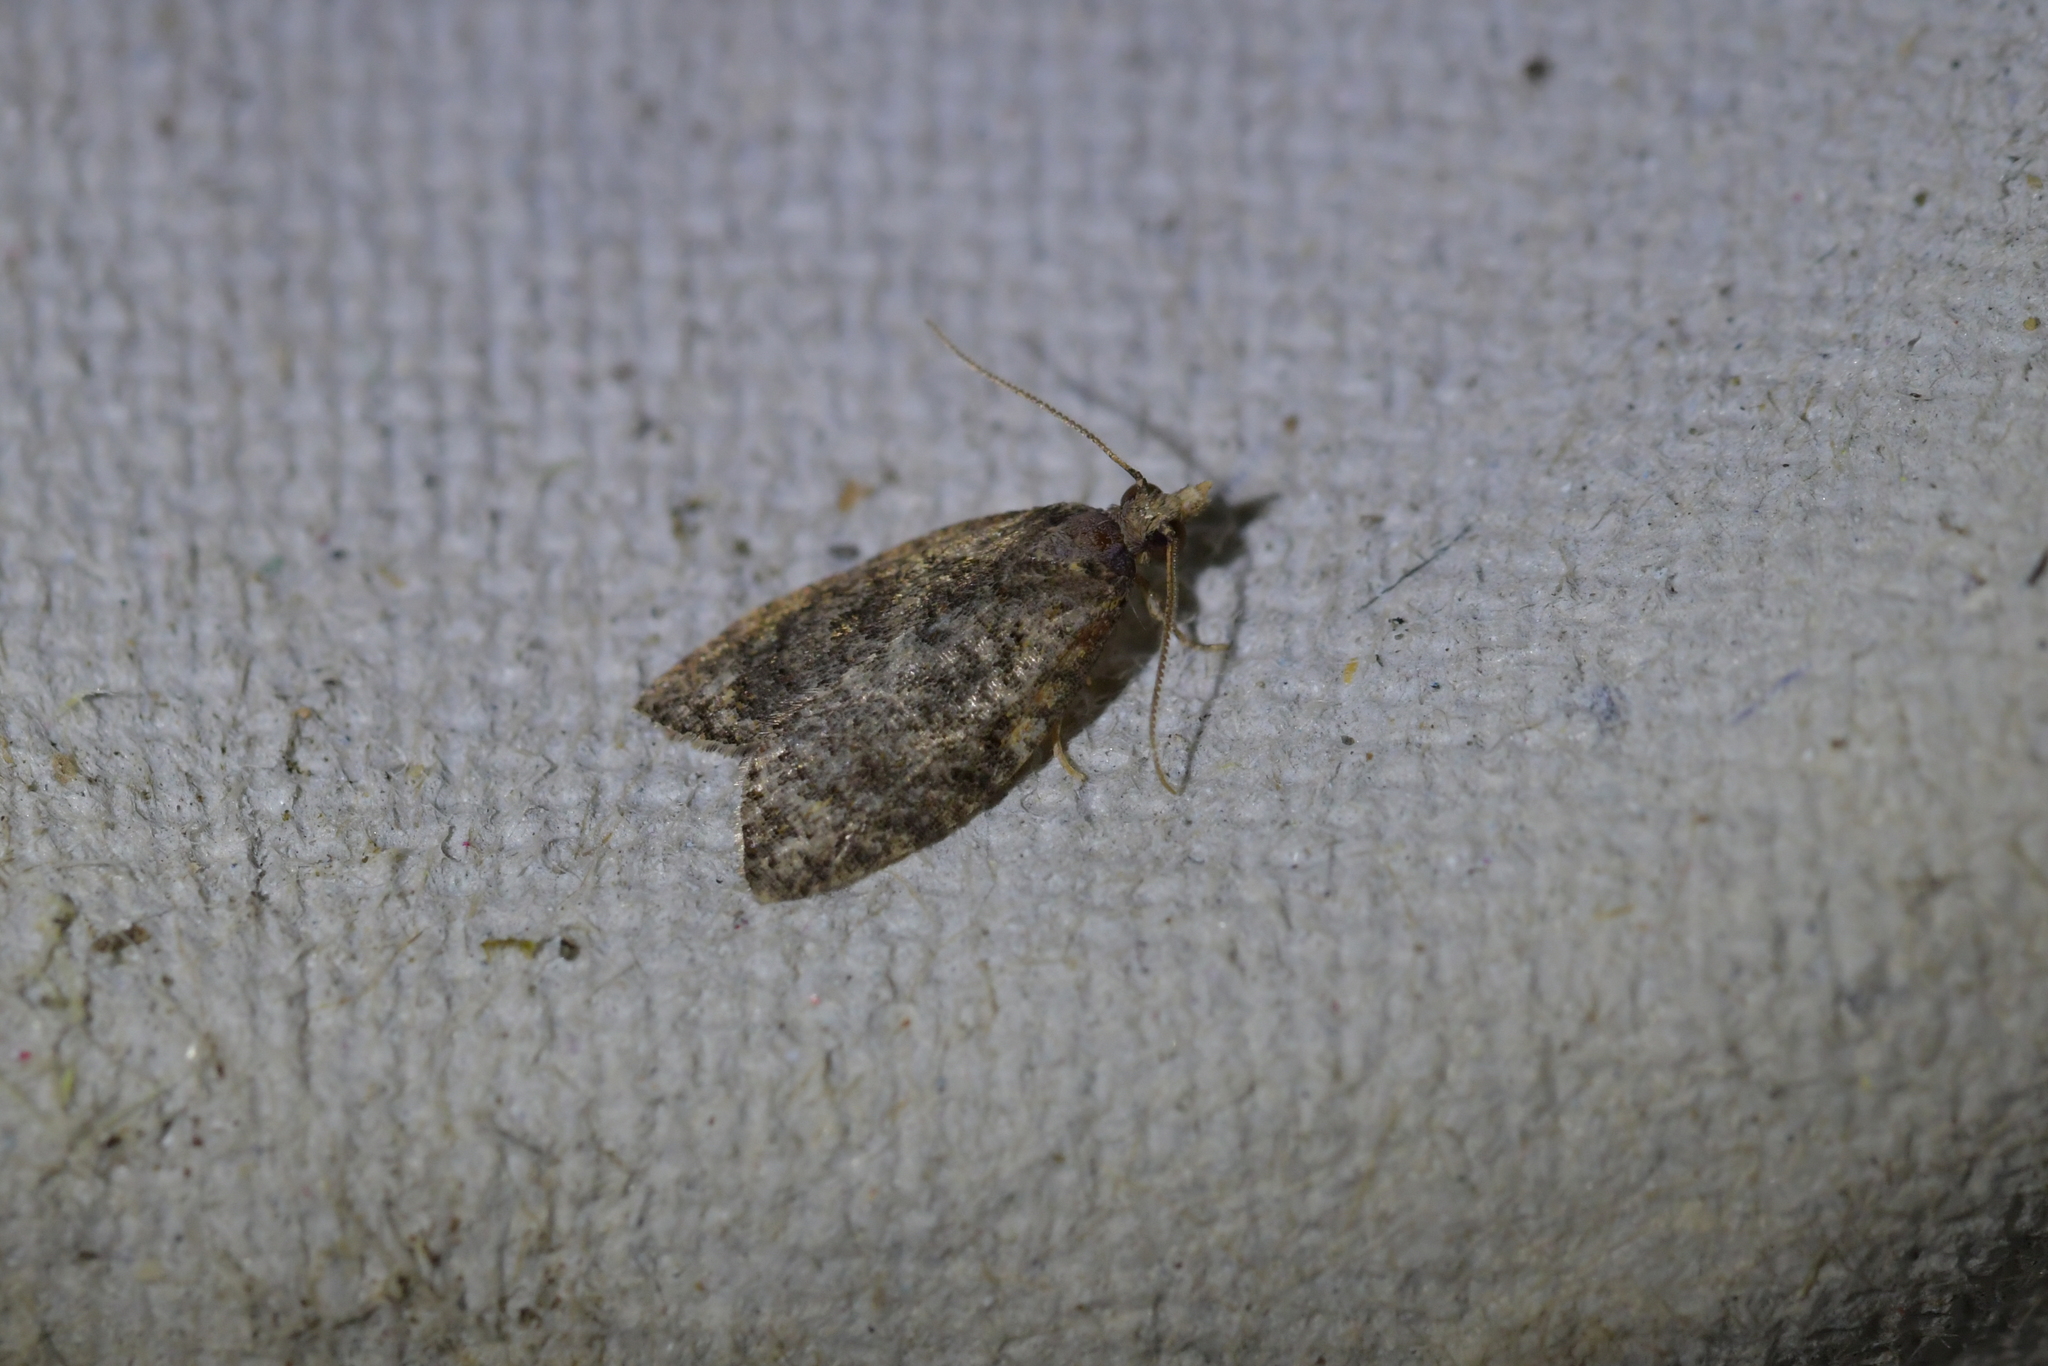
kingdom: Animalia
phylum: Arthropoda
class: Insecta
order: Lepidoptera
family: Tortricidae
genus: Capua
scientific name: Capua intractana
